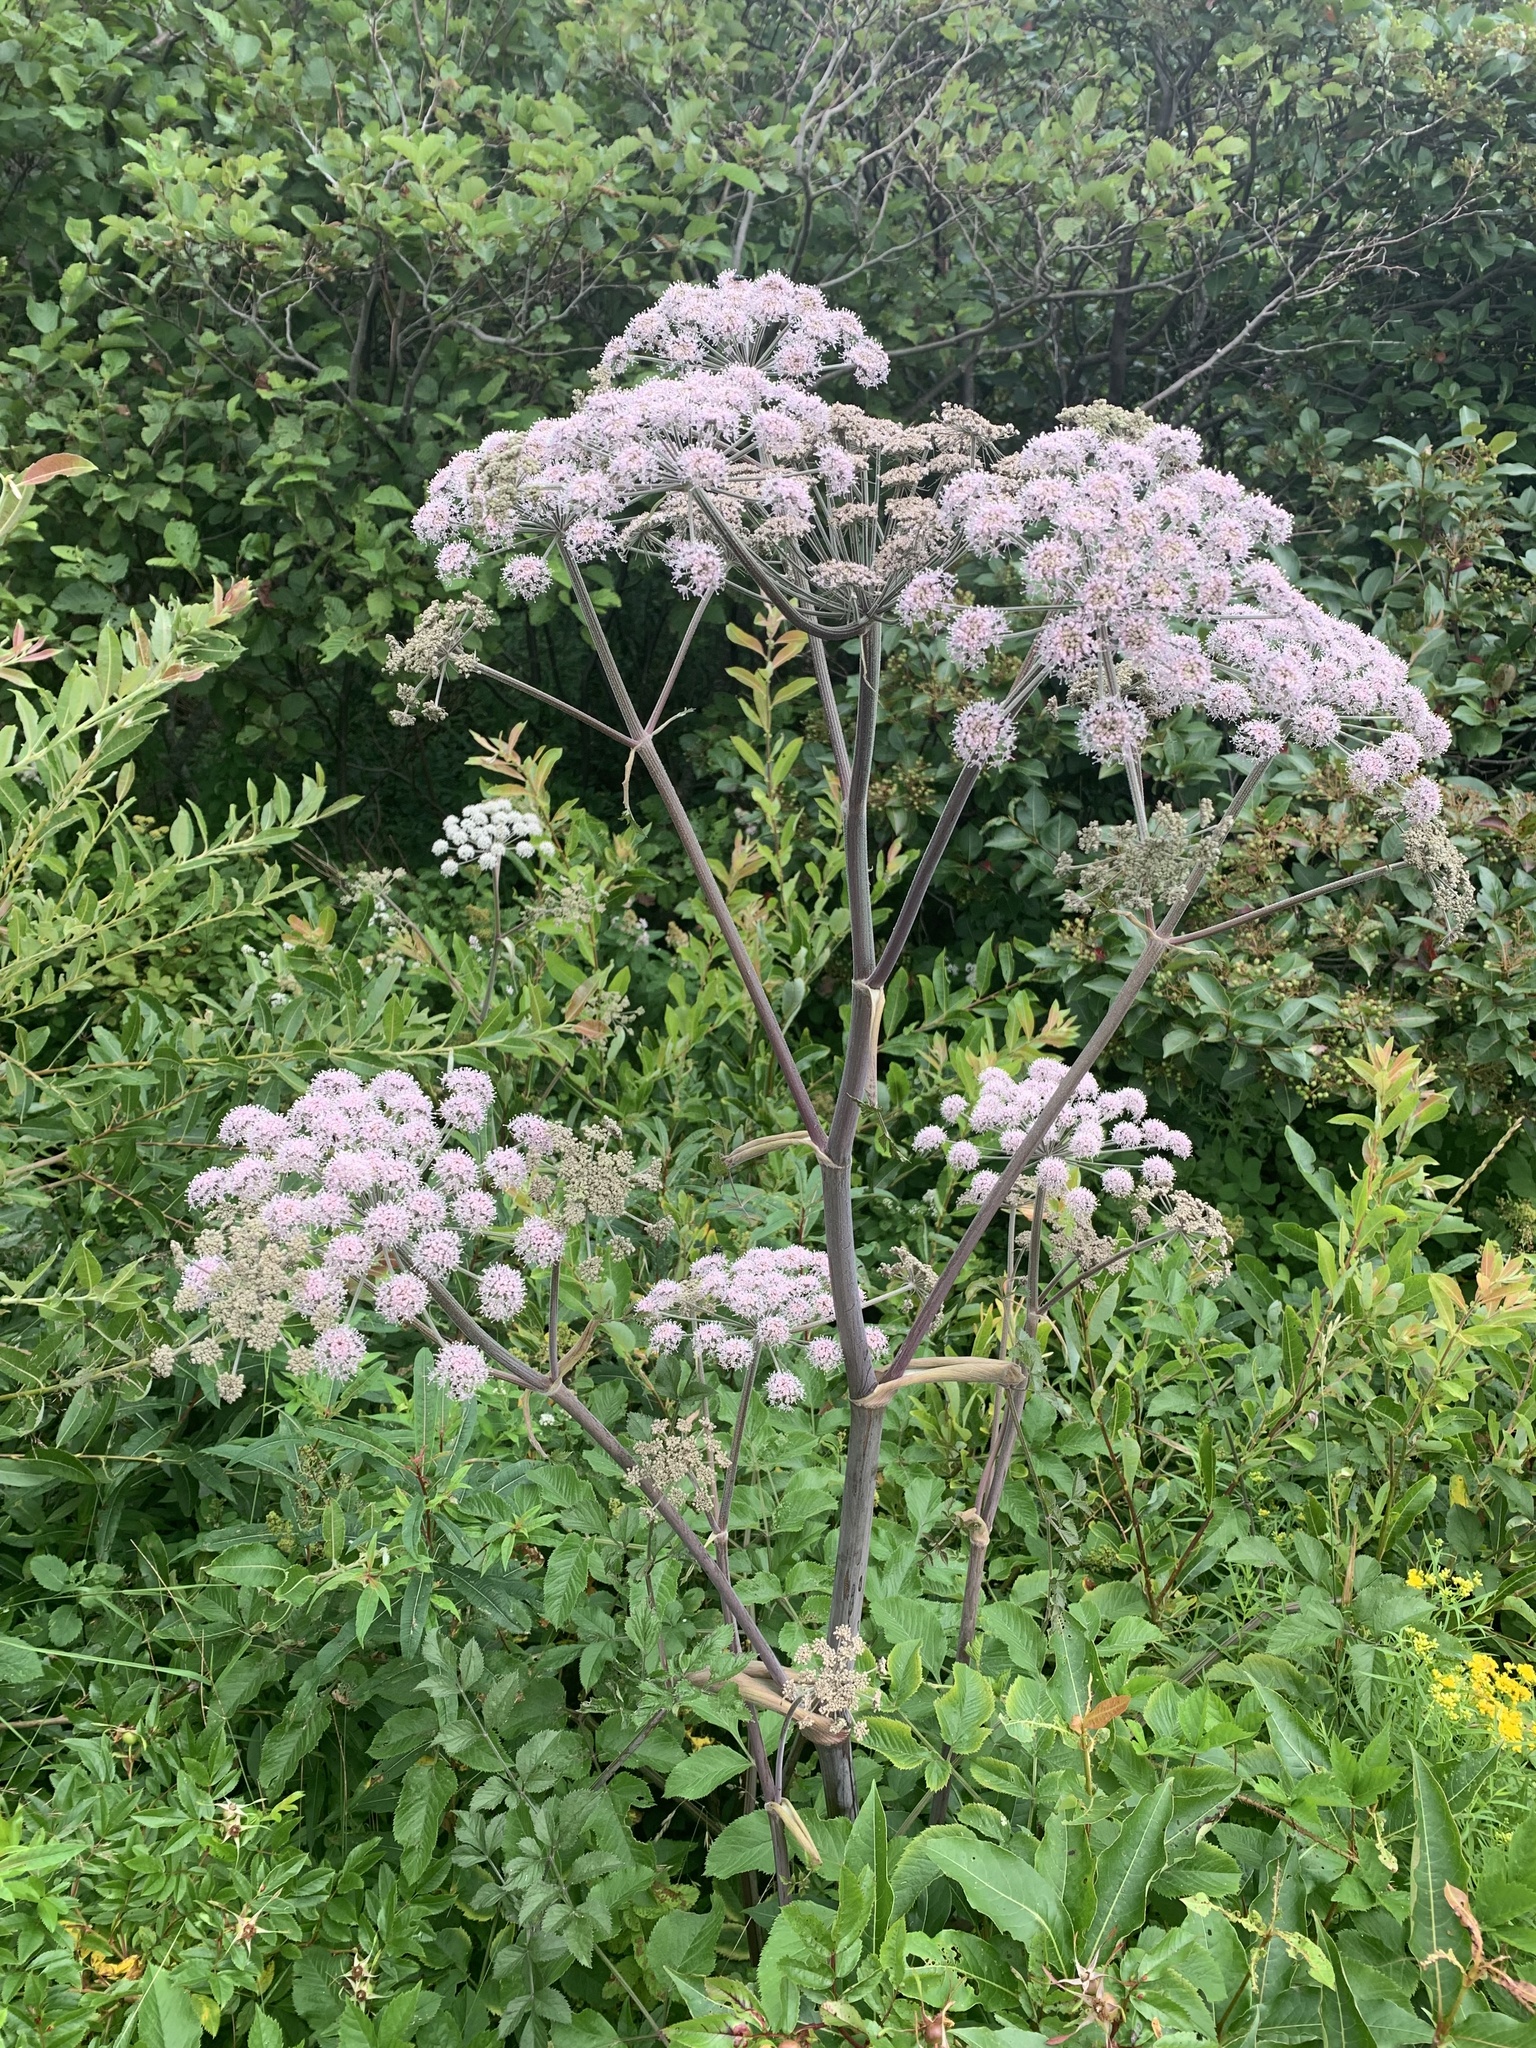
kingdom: Plantae
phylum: Tracheophyta
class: Magnoliopsida
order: Apiales
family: Apiaceae
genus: Angelica
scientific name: Angelica sylvestris
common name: Wild angelica
